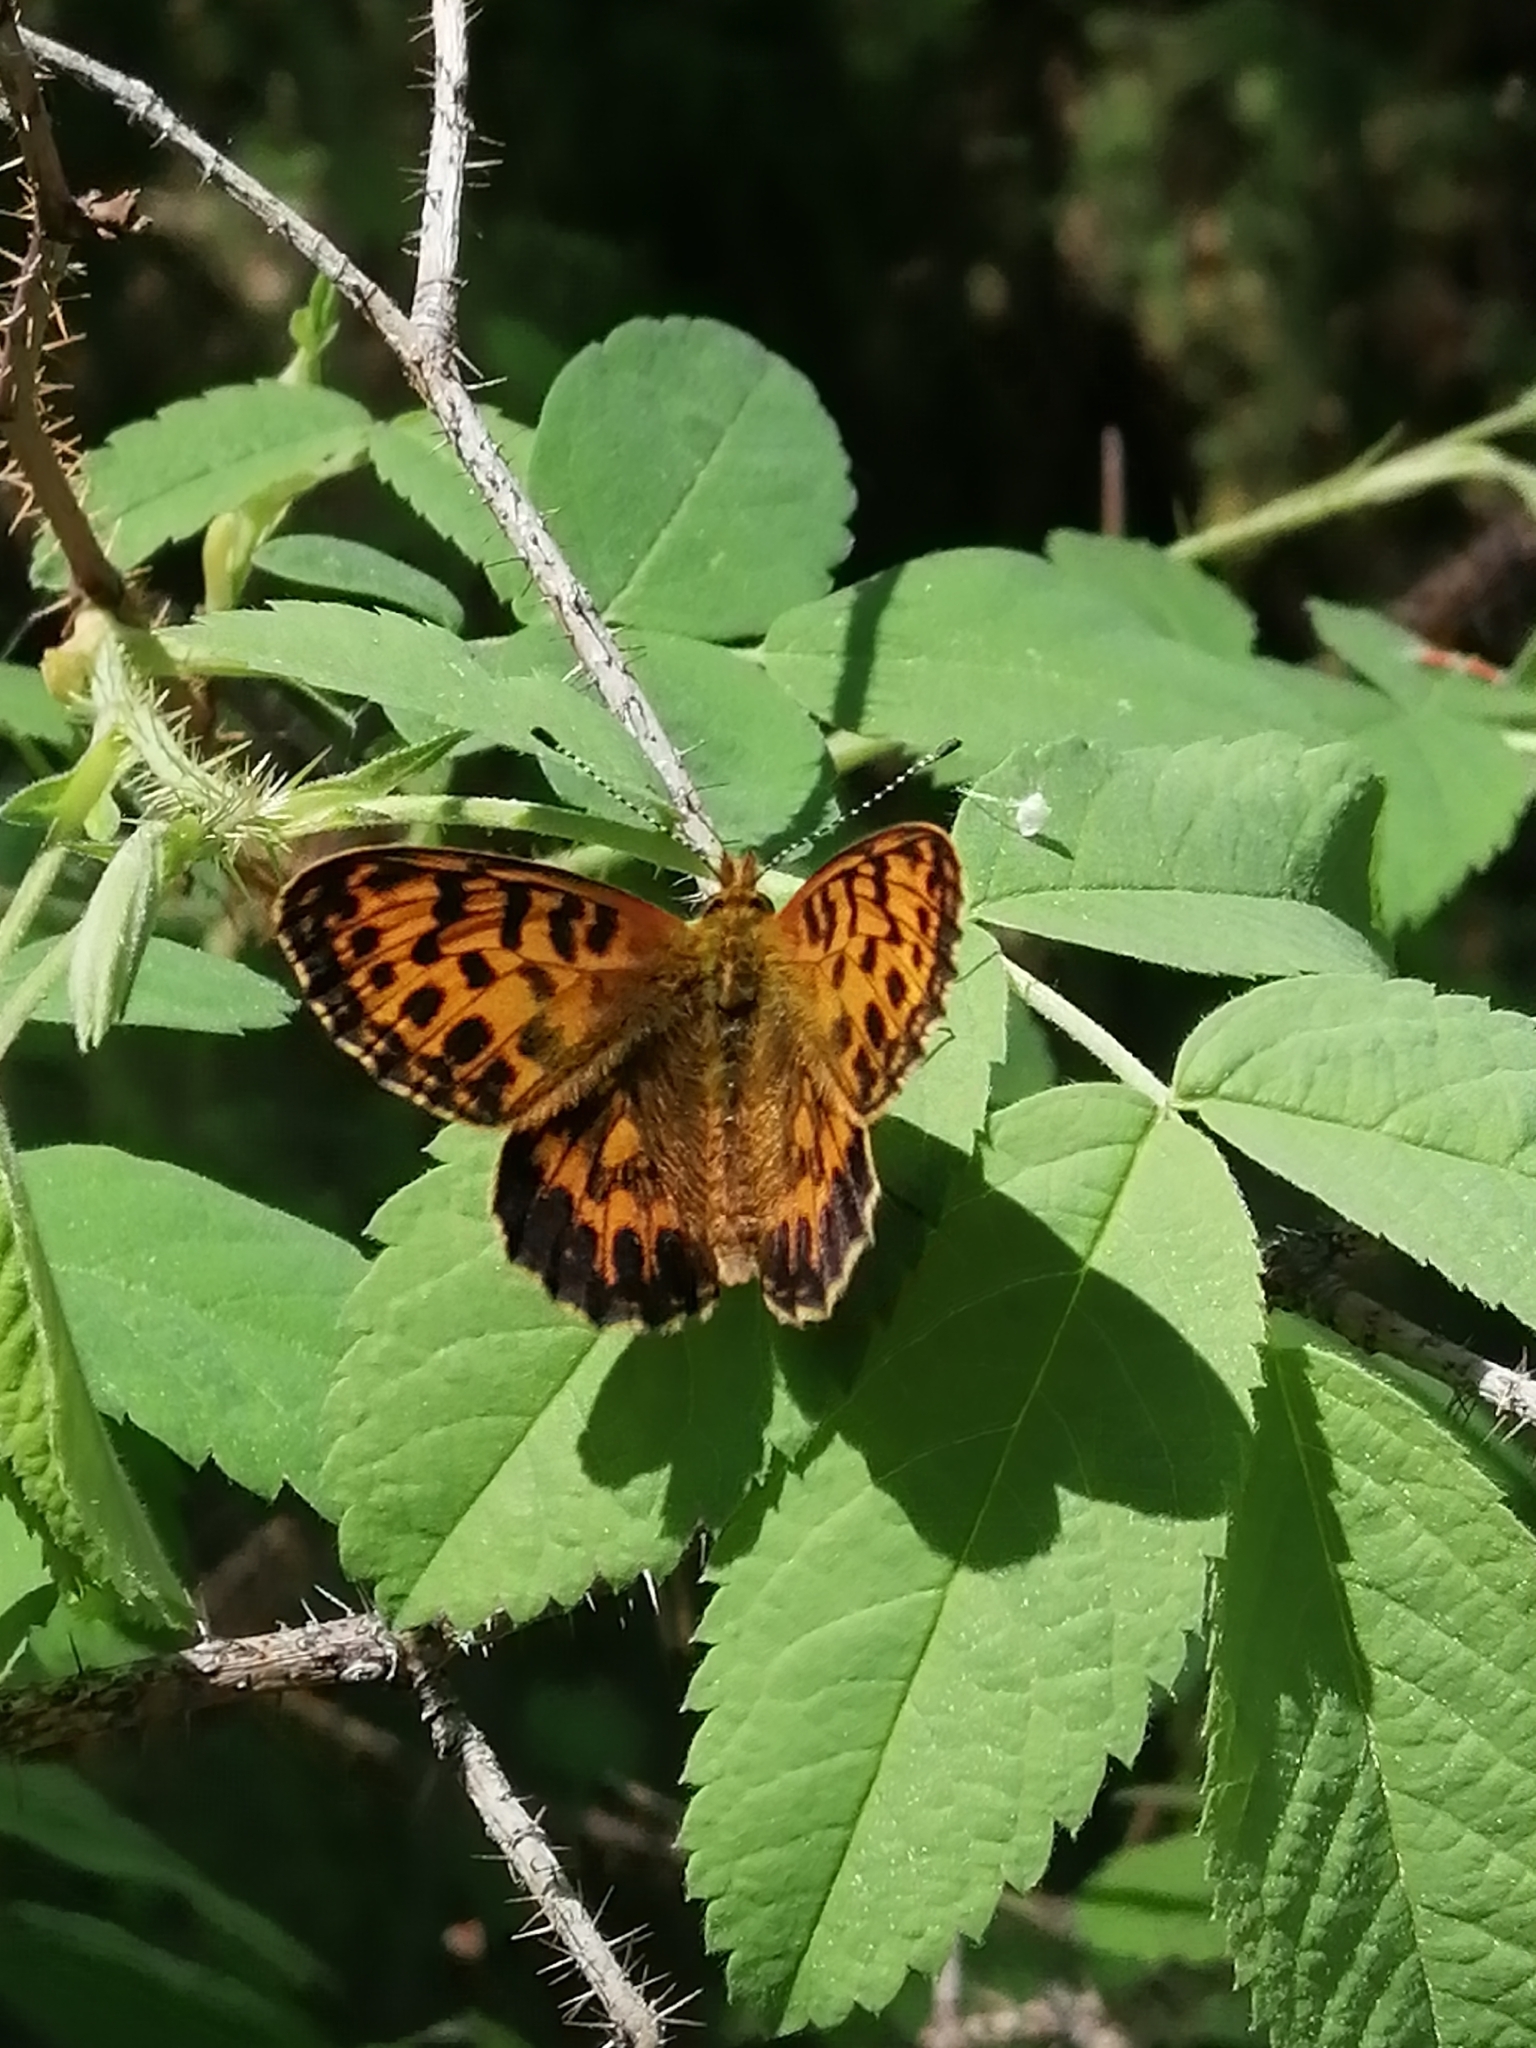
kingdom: Animalia
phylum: Arthropoda
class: Insecta
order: Lepidoptera
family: Nymphalidae
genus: Boloria
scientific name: Boloria thore
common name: Thor's fritillary
